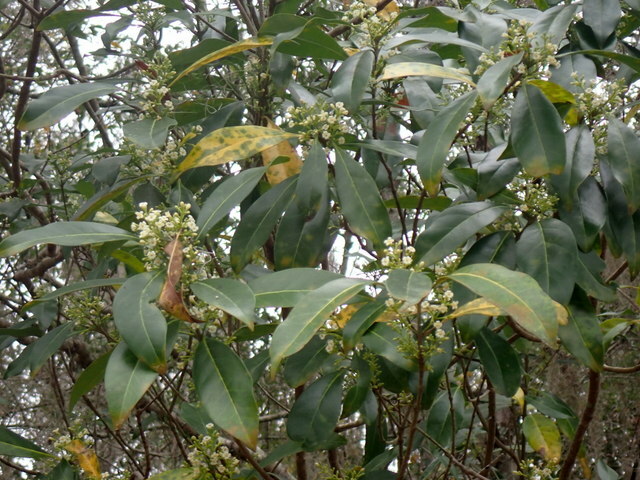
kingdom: Plantae
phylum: Tracheophyta
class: Magnoliopsida
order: Lamiales
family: Oleaceae
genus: Cartrema
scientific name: Cartrema americana
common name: Devilwood
